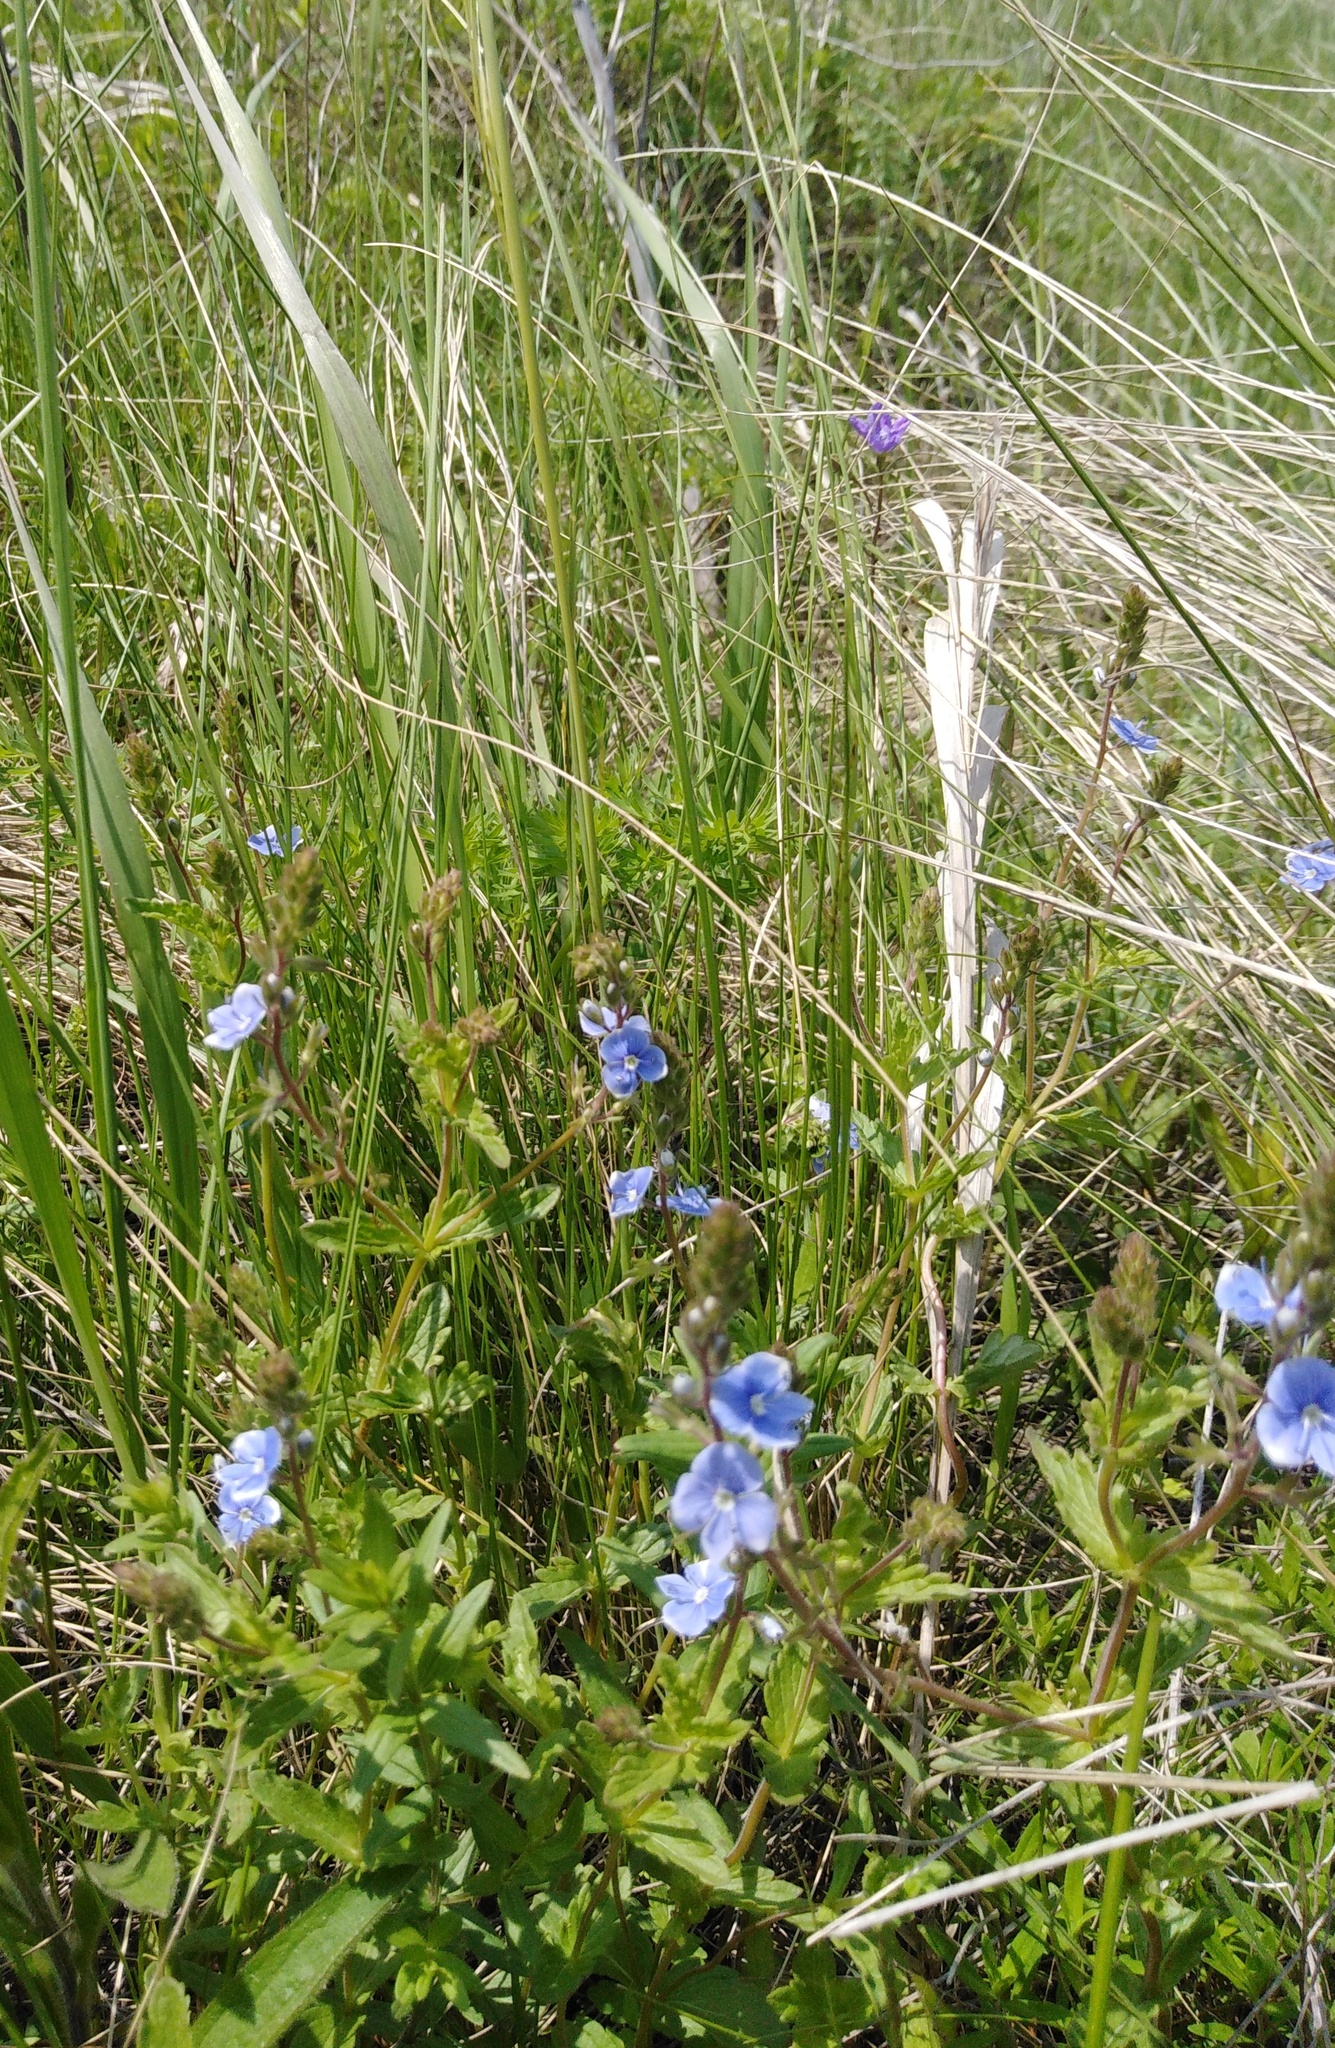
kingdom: Plantae
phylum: Tracheophyta
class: Magnoliopsida
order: Lamiales
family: Plantaginaceae
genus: Veronica
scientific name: Veronica chamaedrys
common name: Germander speedwell
